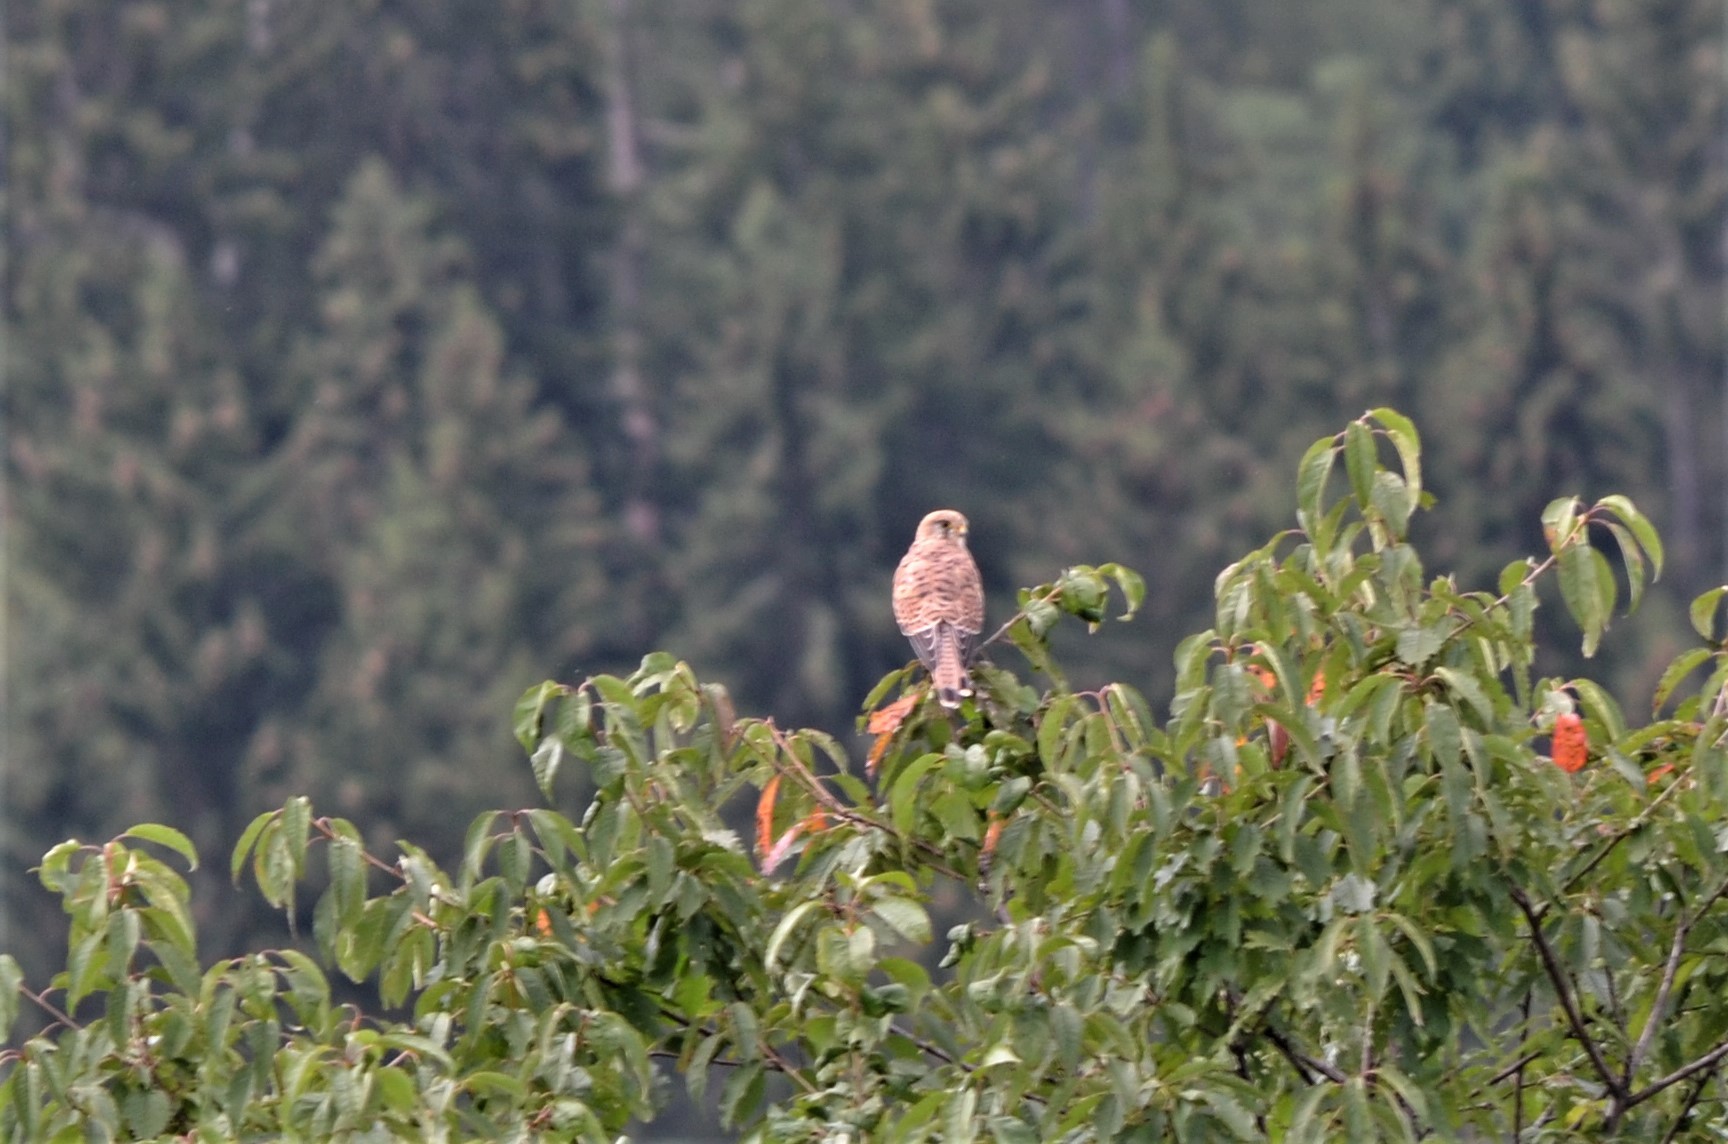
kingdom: Animalia
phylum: Chordata
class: Aves
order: Falconiformes
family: Falconidae
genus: Falco
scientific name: Falco tinnunculus
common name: Common kestrel
